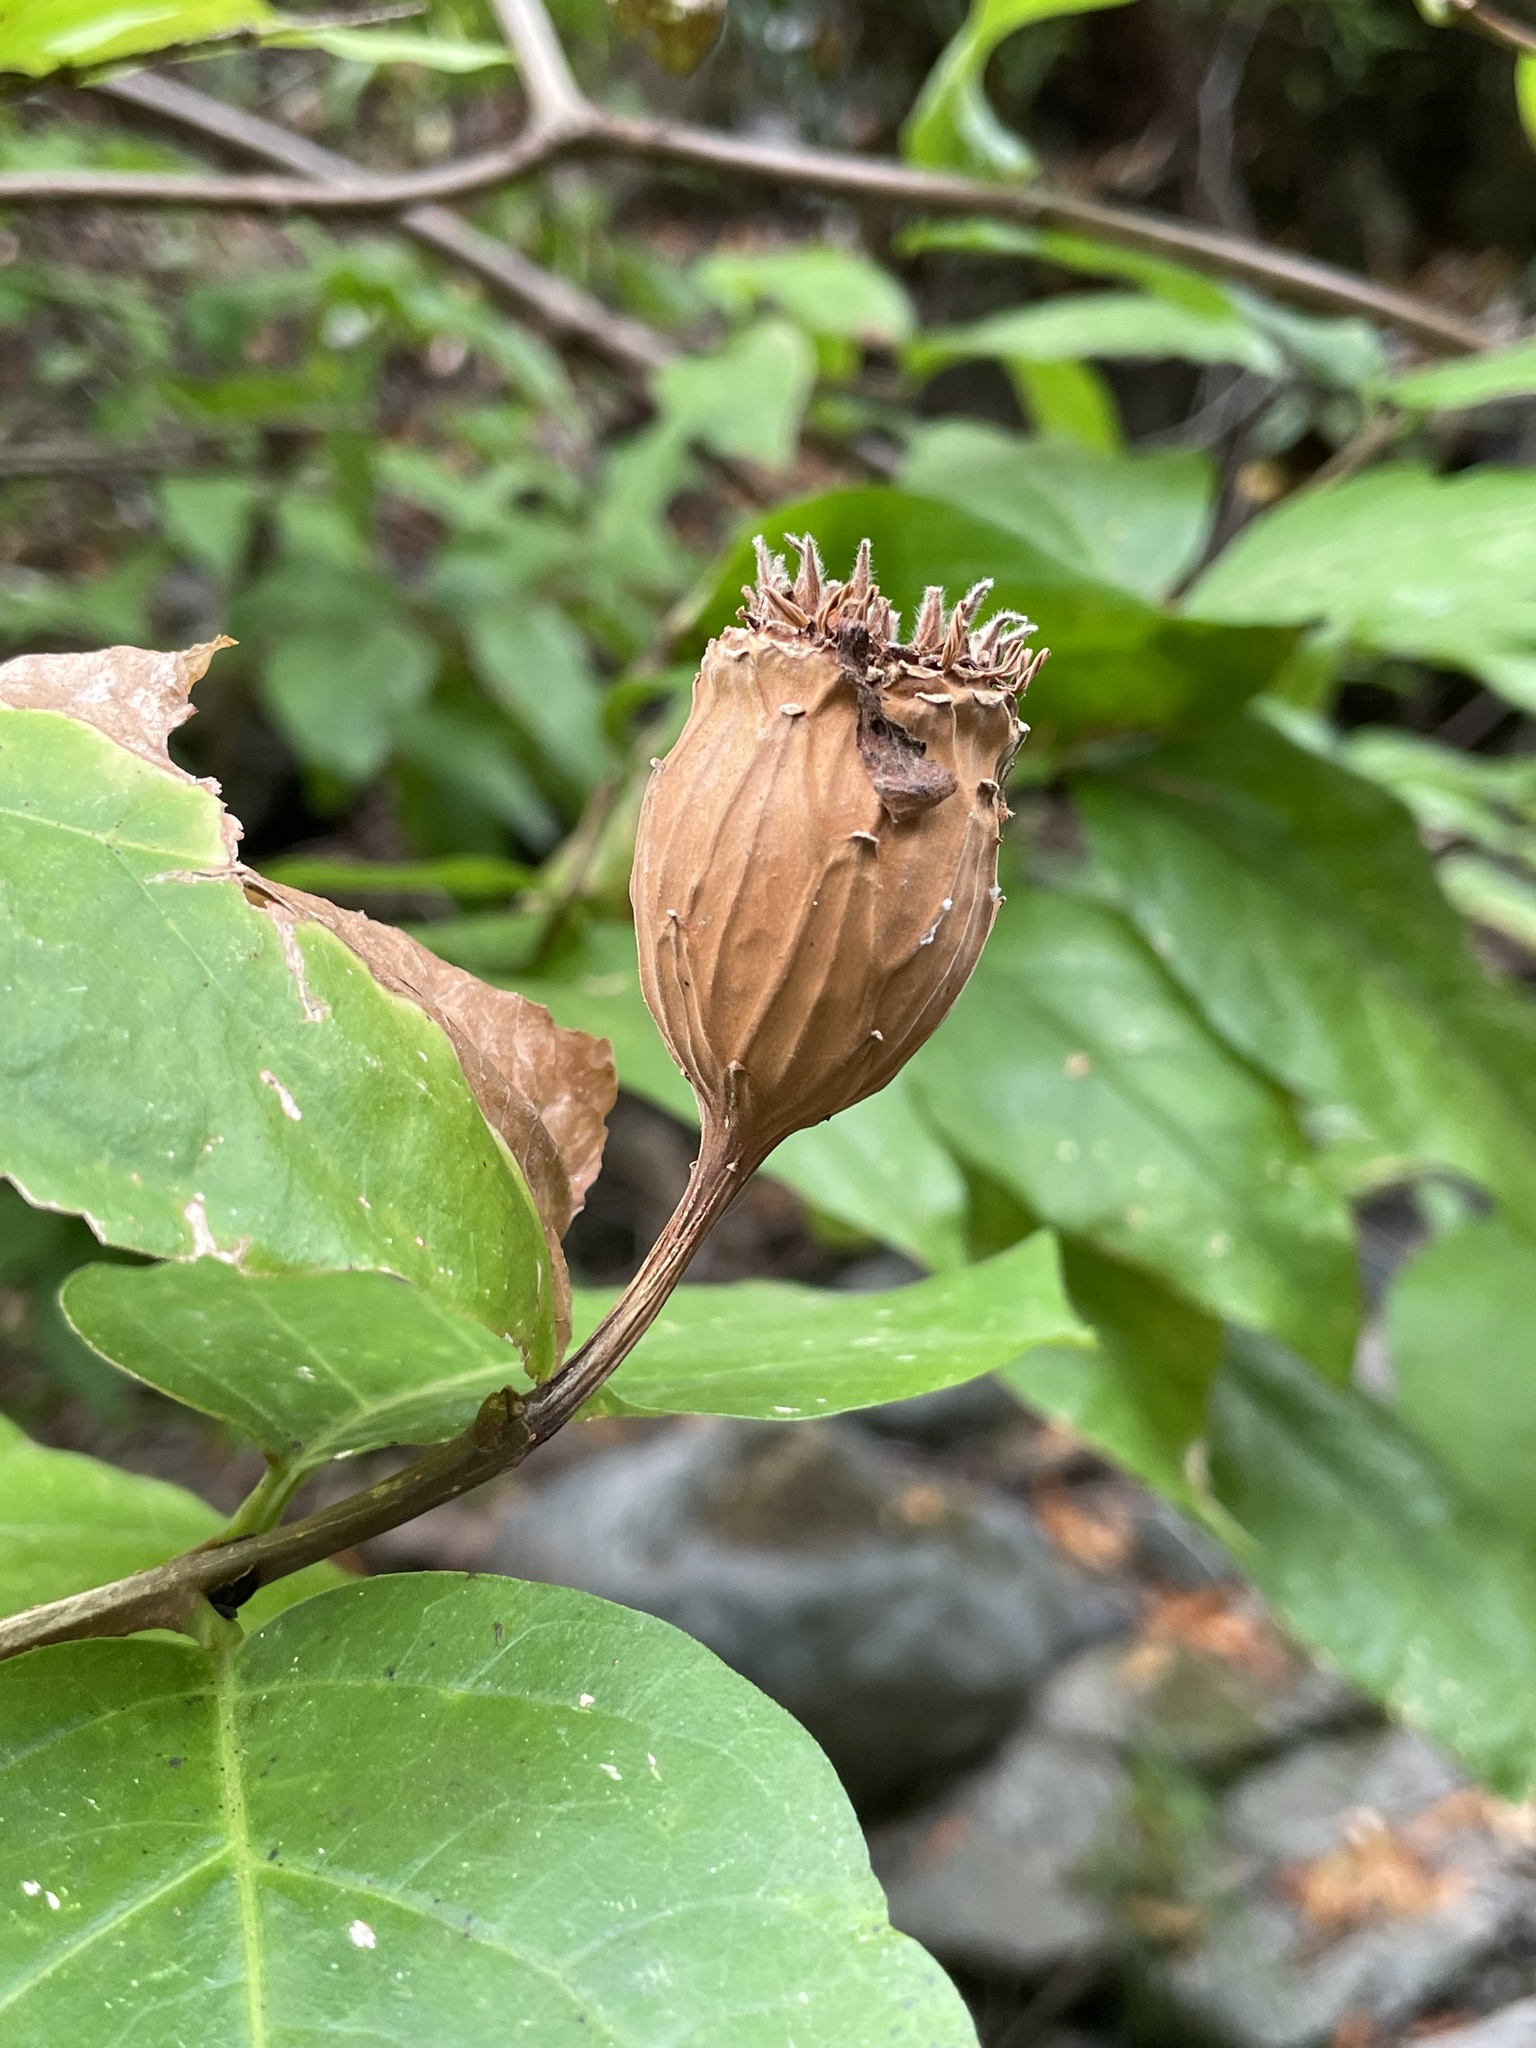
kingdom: Plantae
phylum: Tracheophyta
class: Magnoliopsida
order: Laurales
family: Calycanthaceae
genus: Calycanthus
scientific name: Calycanthus occidentalis
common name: California spicebush
